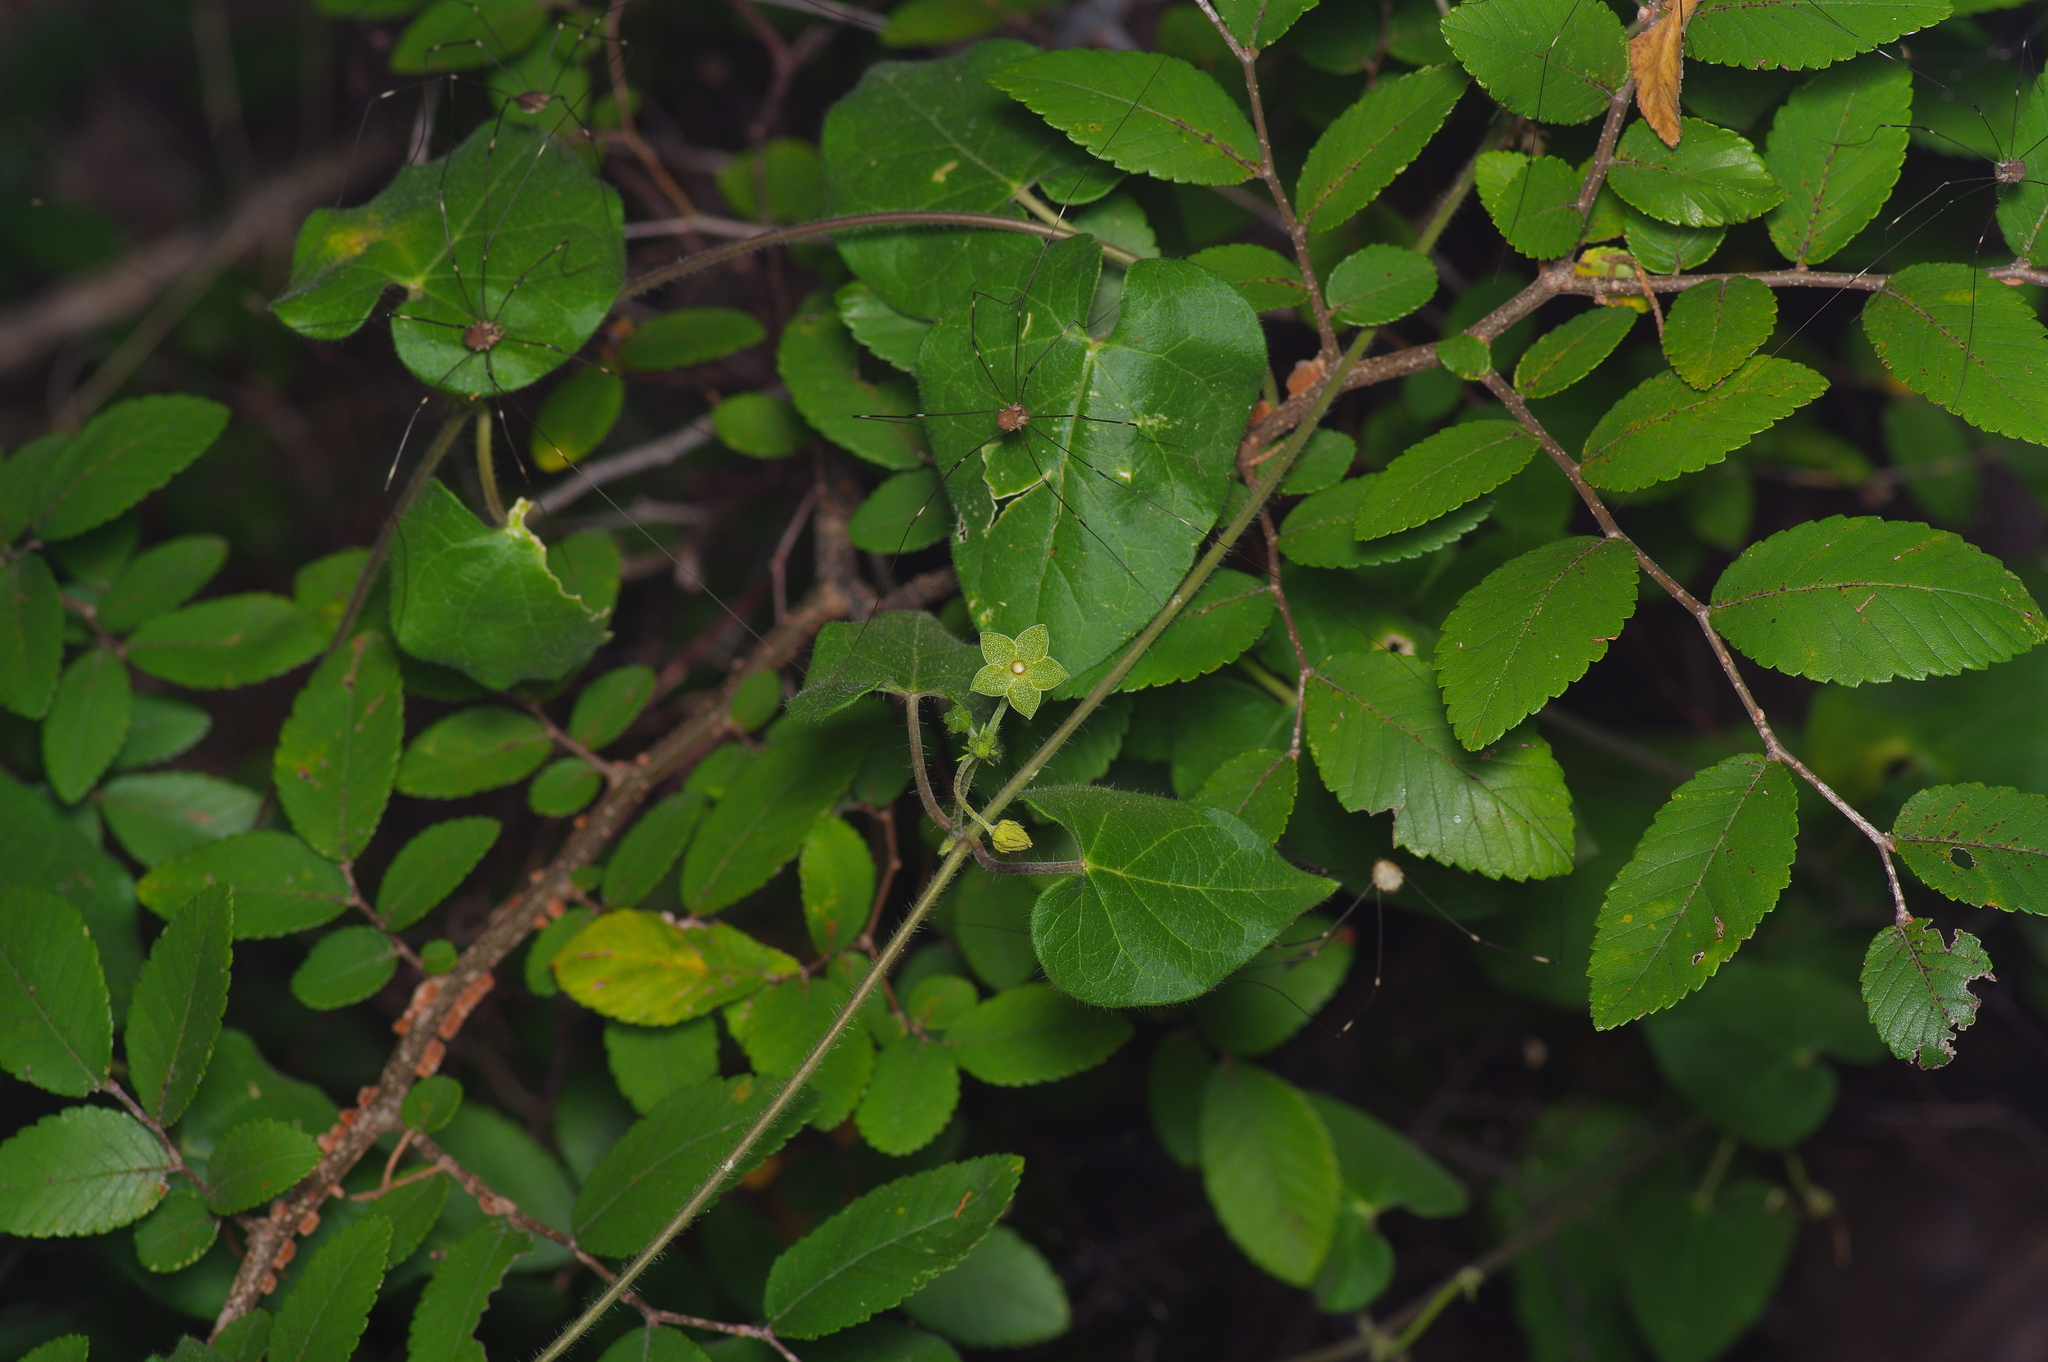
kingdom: Plantae
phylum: Tracheophyta
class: Magnoliopsida
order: Gentianales
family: Apocynaceae
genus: Dictyanthus
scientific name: Dictyanthus reticulatus
